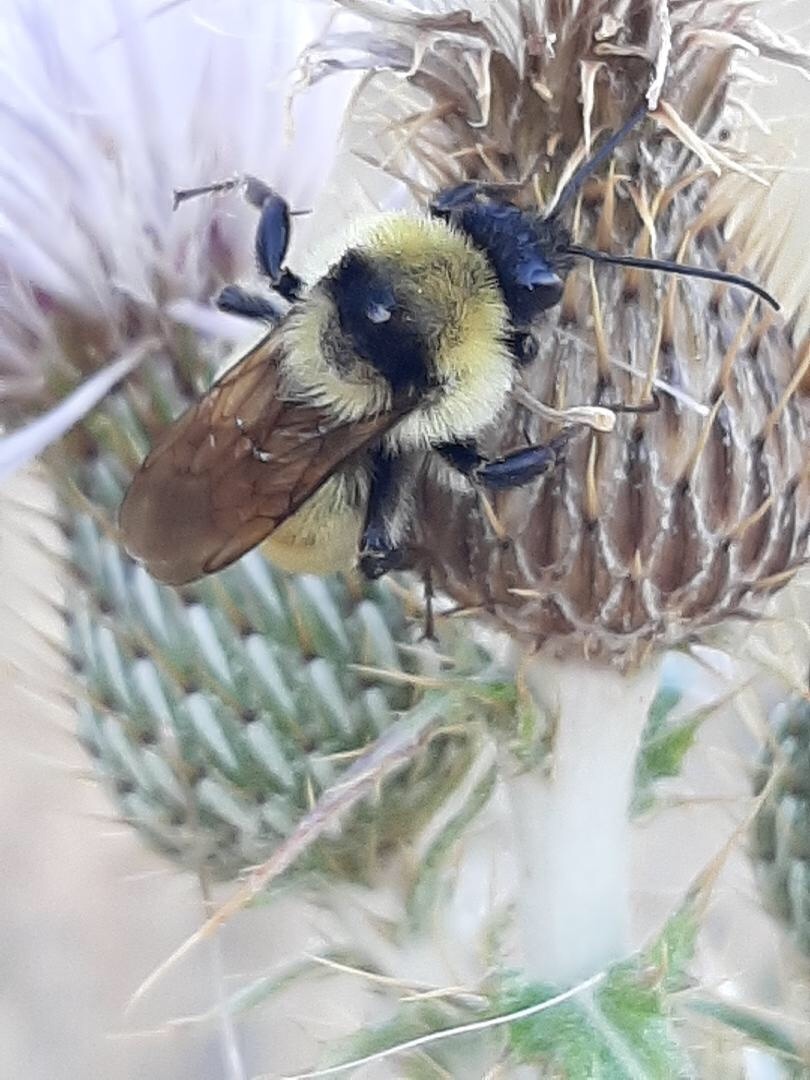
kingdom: Animalia
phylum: Arthropoda
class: Insecta
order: Hymenoptera
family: Apidae
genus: Bombus
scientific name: Bombus fervidus
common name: Yellow bumble bee
